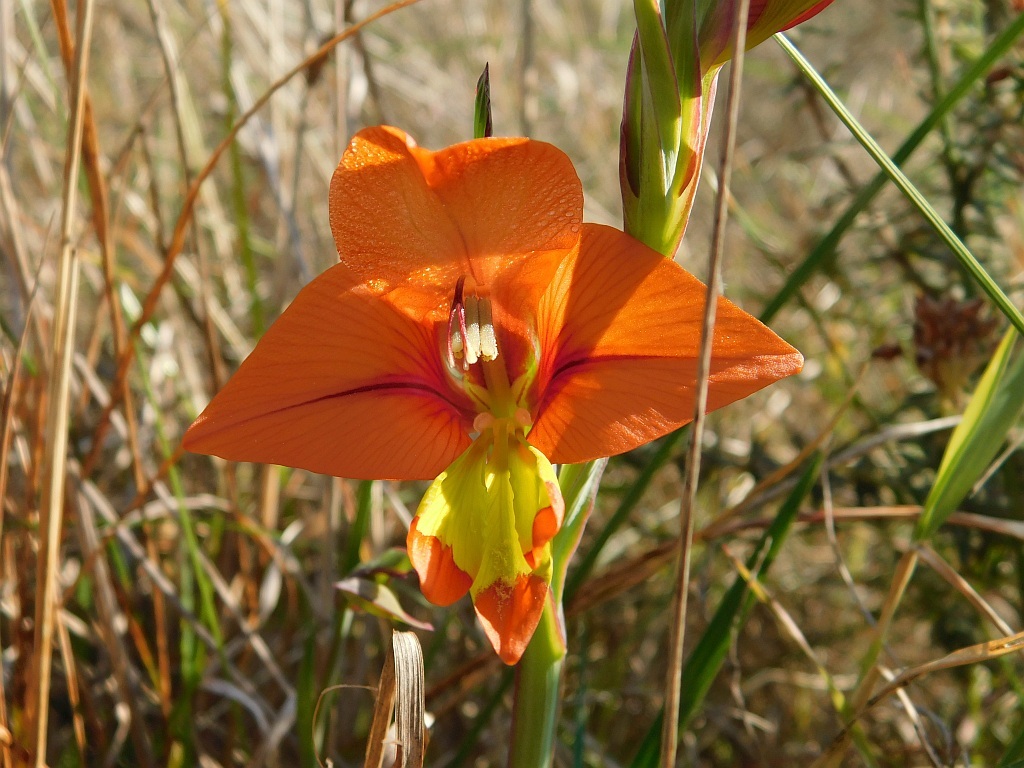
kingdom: Plantae
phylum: Tracheophyta
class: Liliopsida
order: Asparagales
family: Iridaceae
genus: Gladiolus
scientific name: Gladiolus alatus
